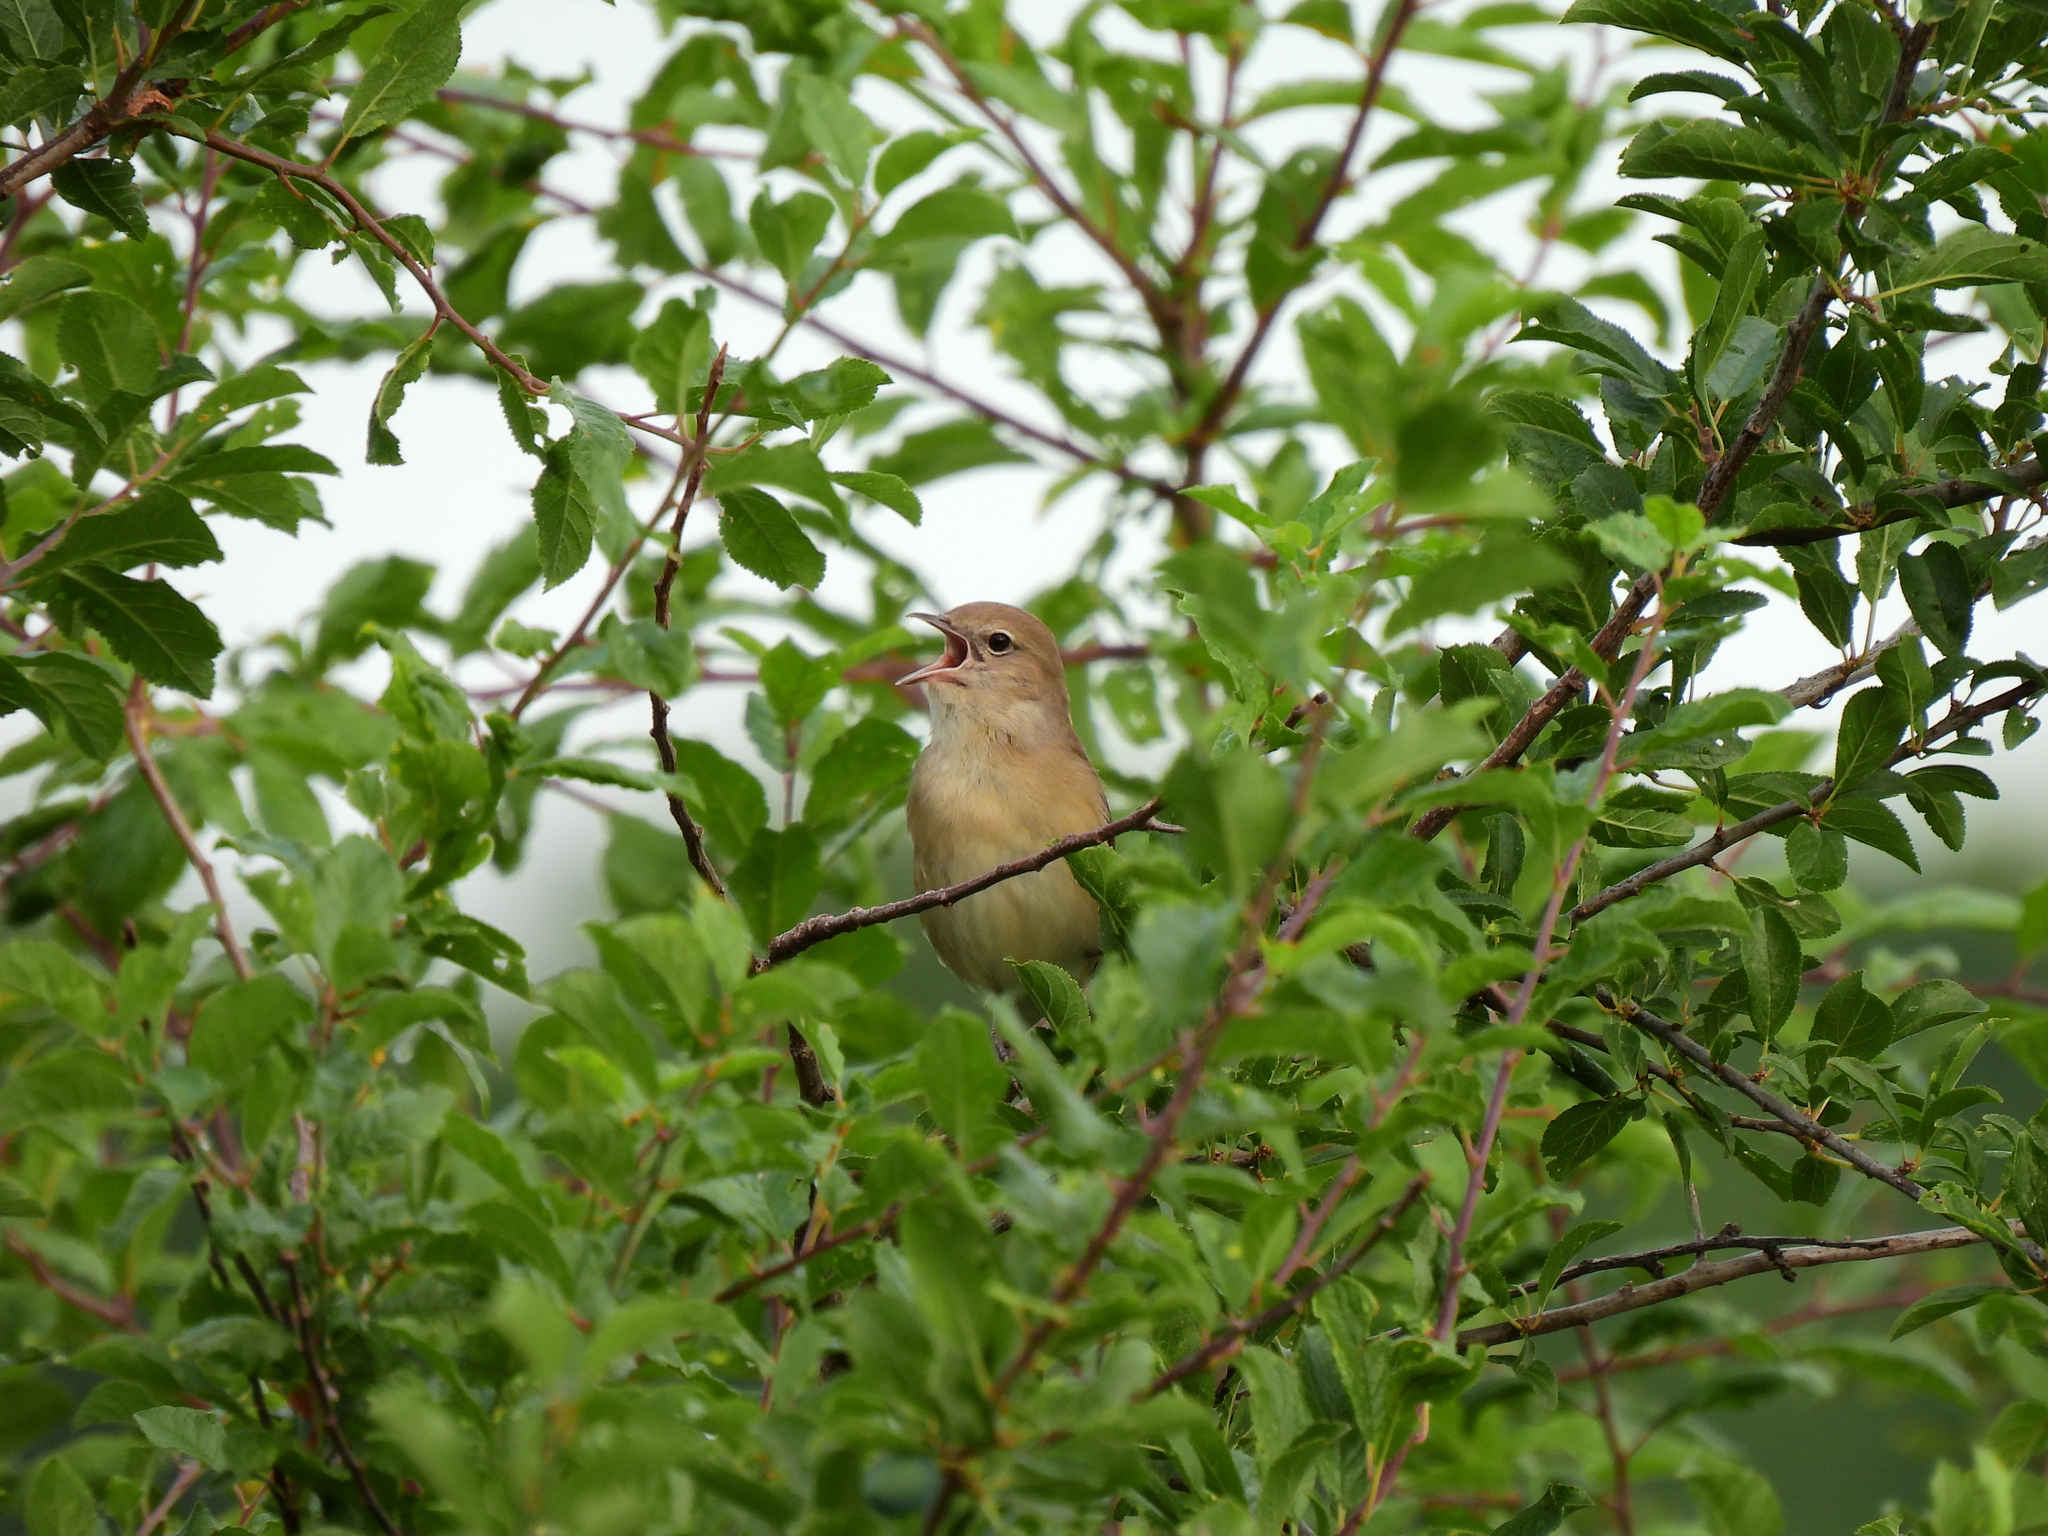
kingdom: Animalia
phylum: Chordata
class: Aves
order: Passeriformes
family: Sylviidae
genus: Sylvia
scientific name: Sylvia borin
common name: Garden warbler
